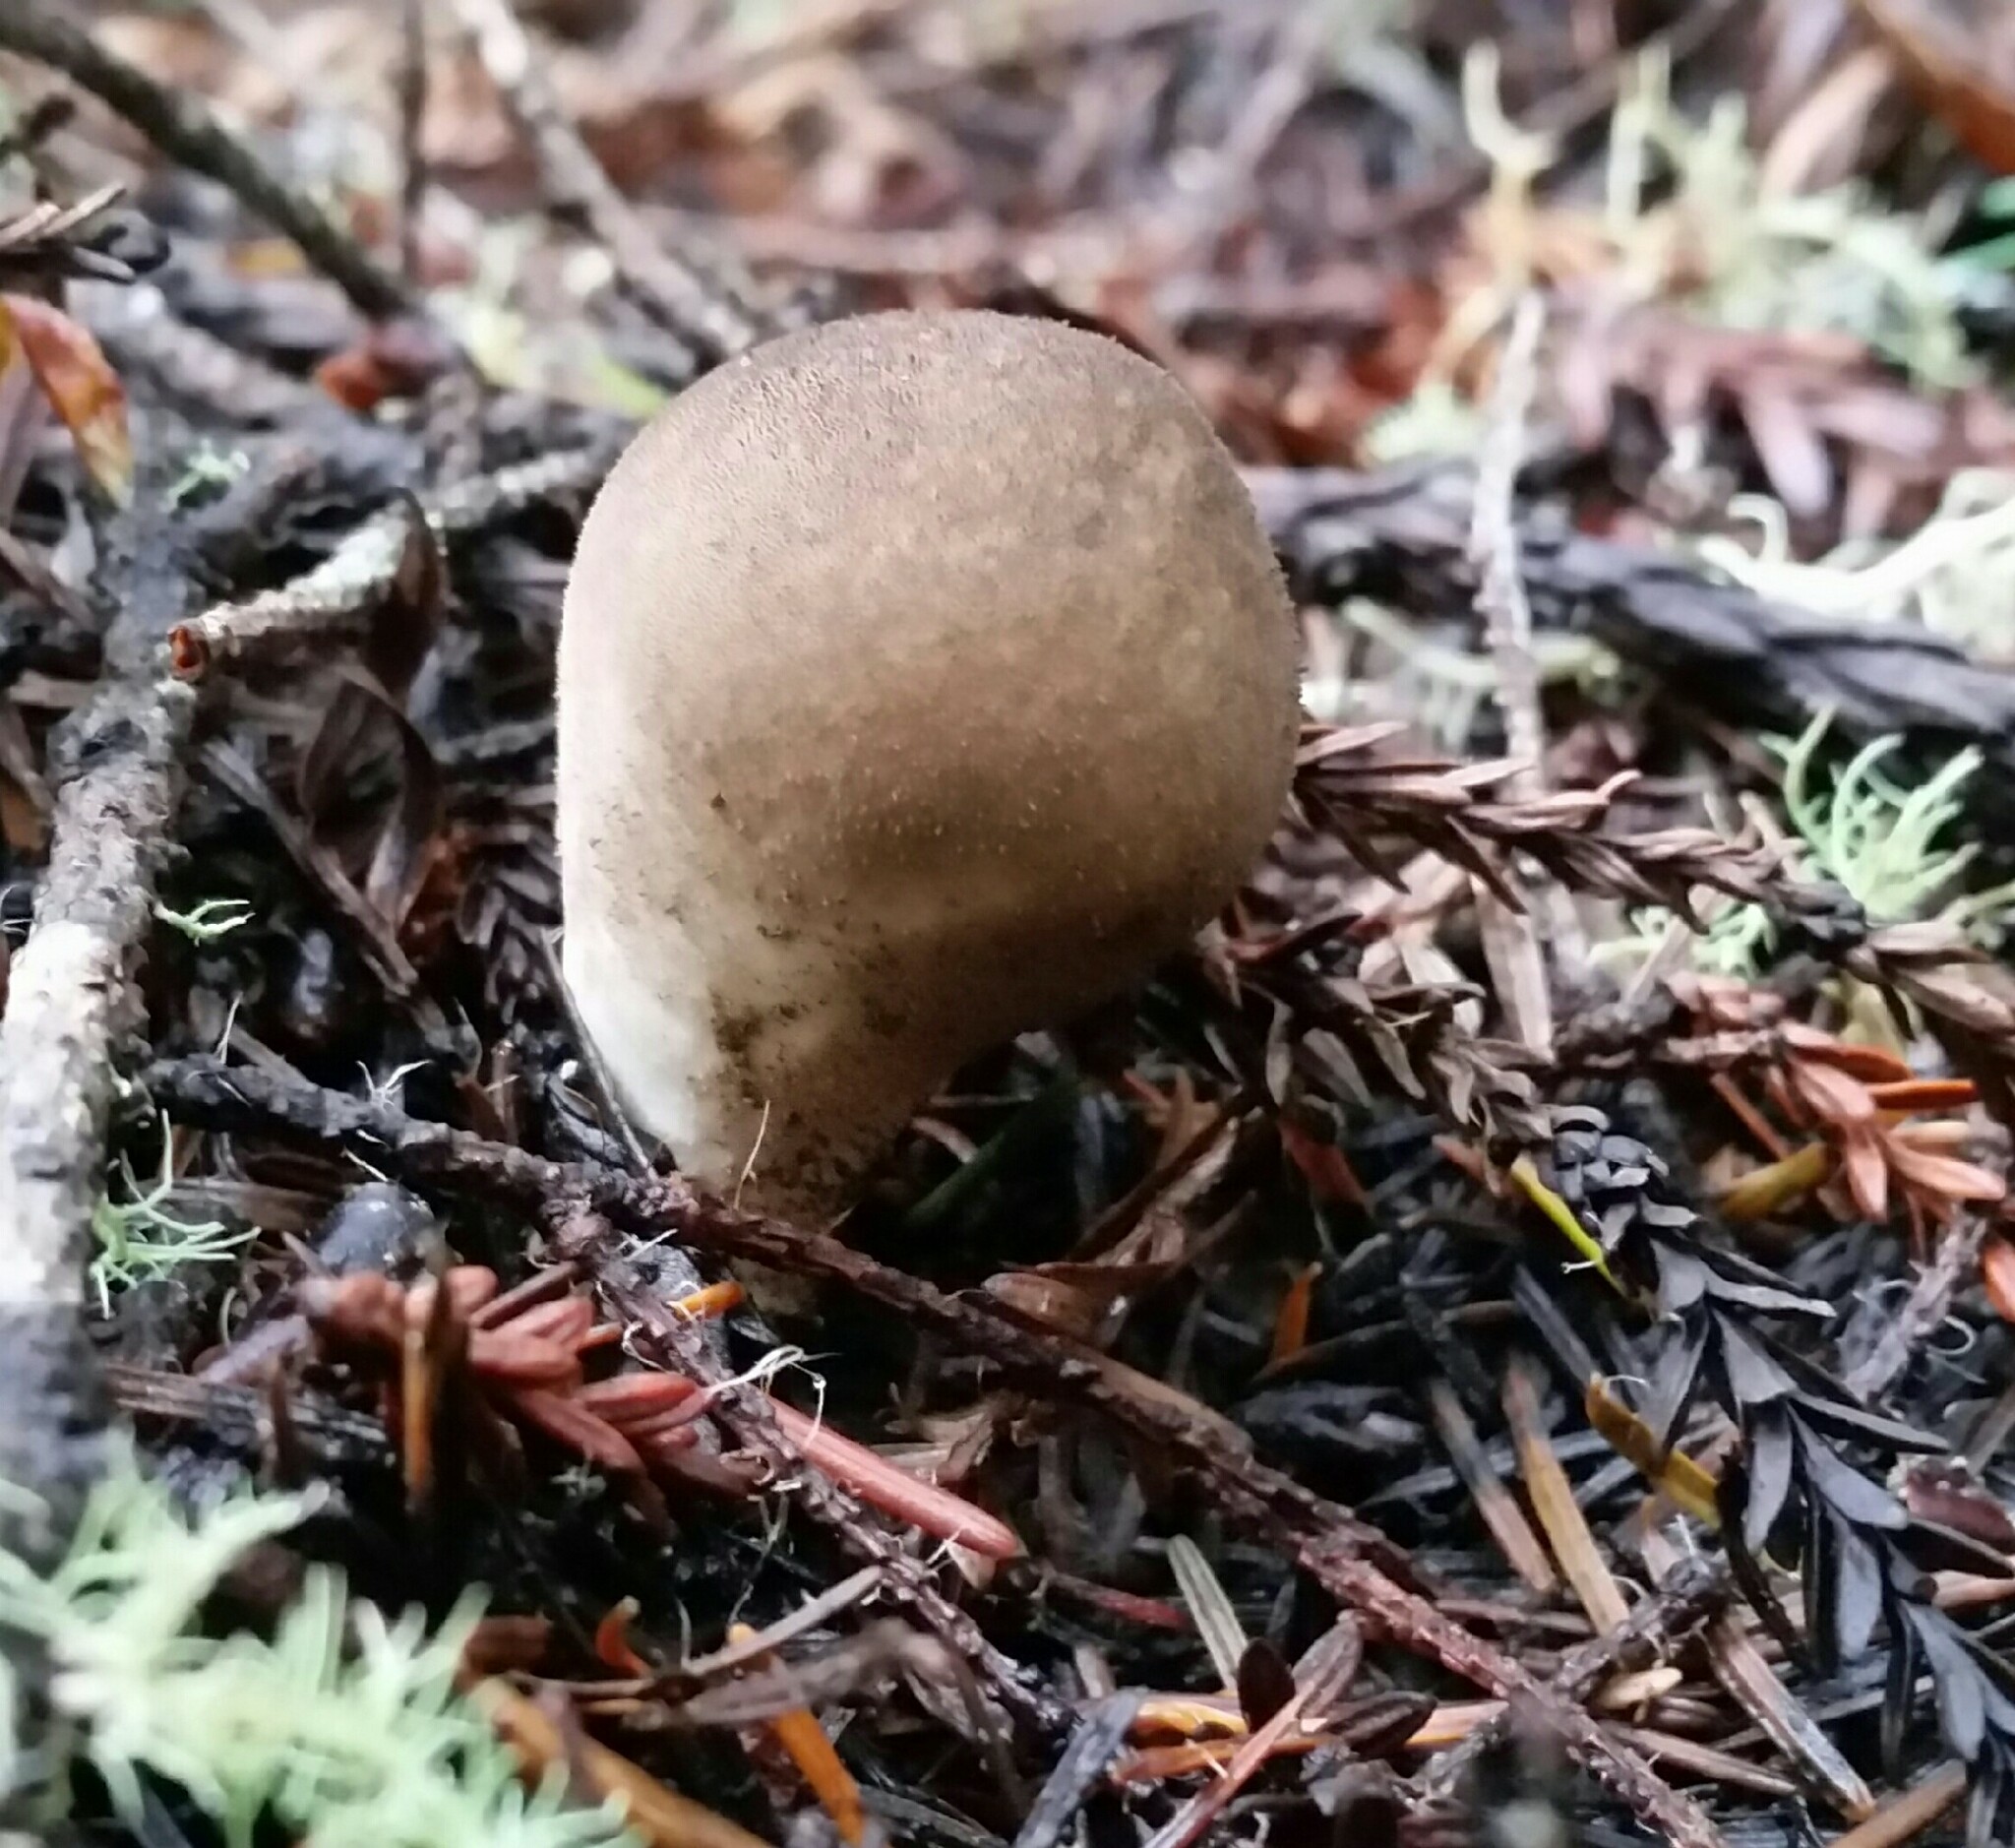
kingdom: Fungi
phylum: Basidiomycota
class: Agaricomycetes
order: Agaricales
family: Lycoperdaceae
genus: Lycoperdon
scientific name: Lycoperdon umbrinum
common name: Umber-brown puffball
